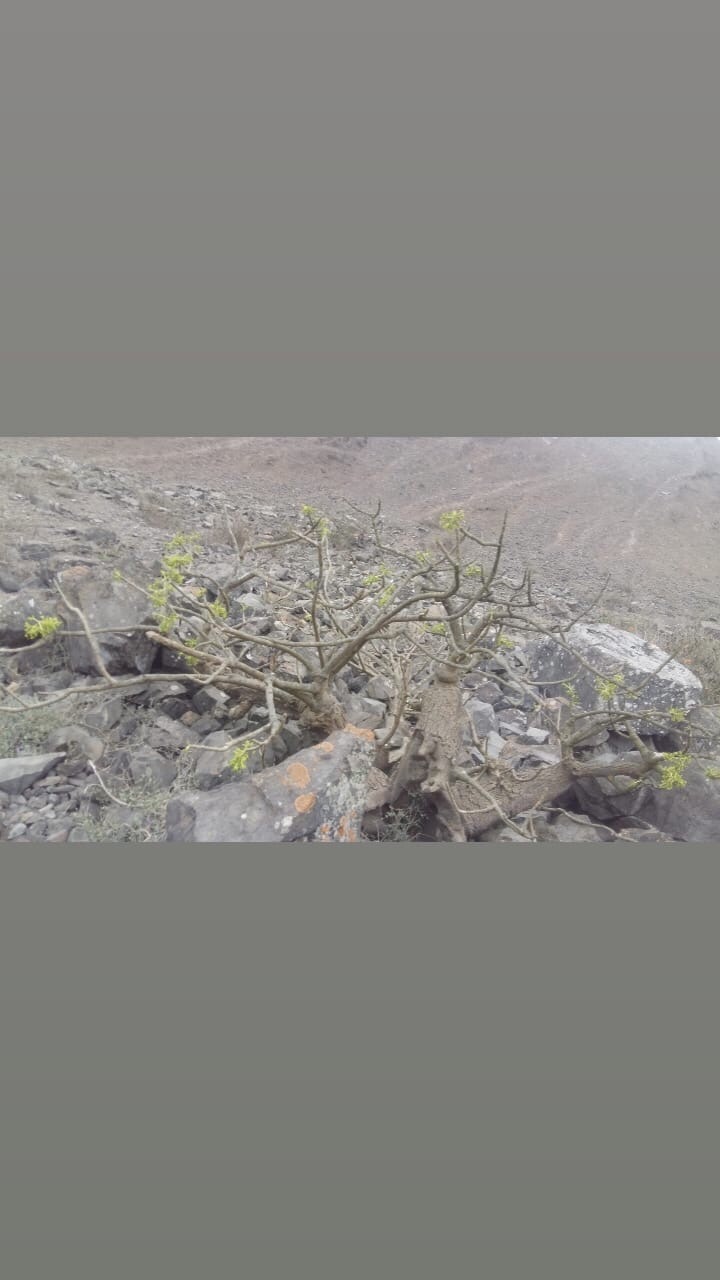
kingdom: Plantae
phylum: Tracheophyta
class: Magnoliopsida
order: Brassicales
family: Caricaceae
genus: Vasconcellea
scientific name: Vasconcellea candicans
